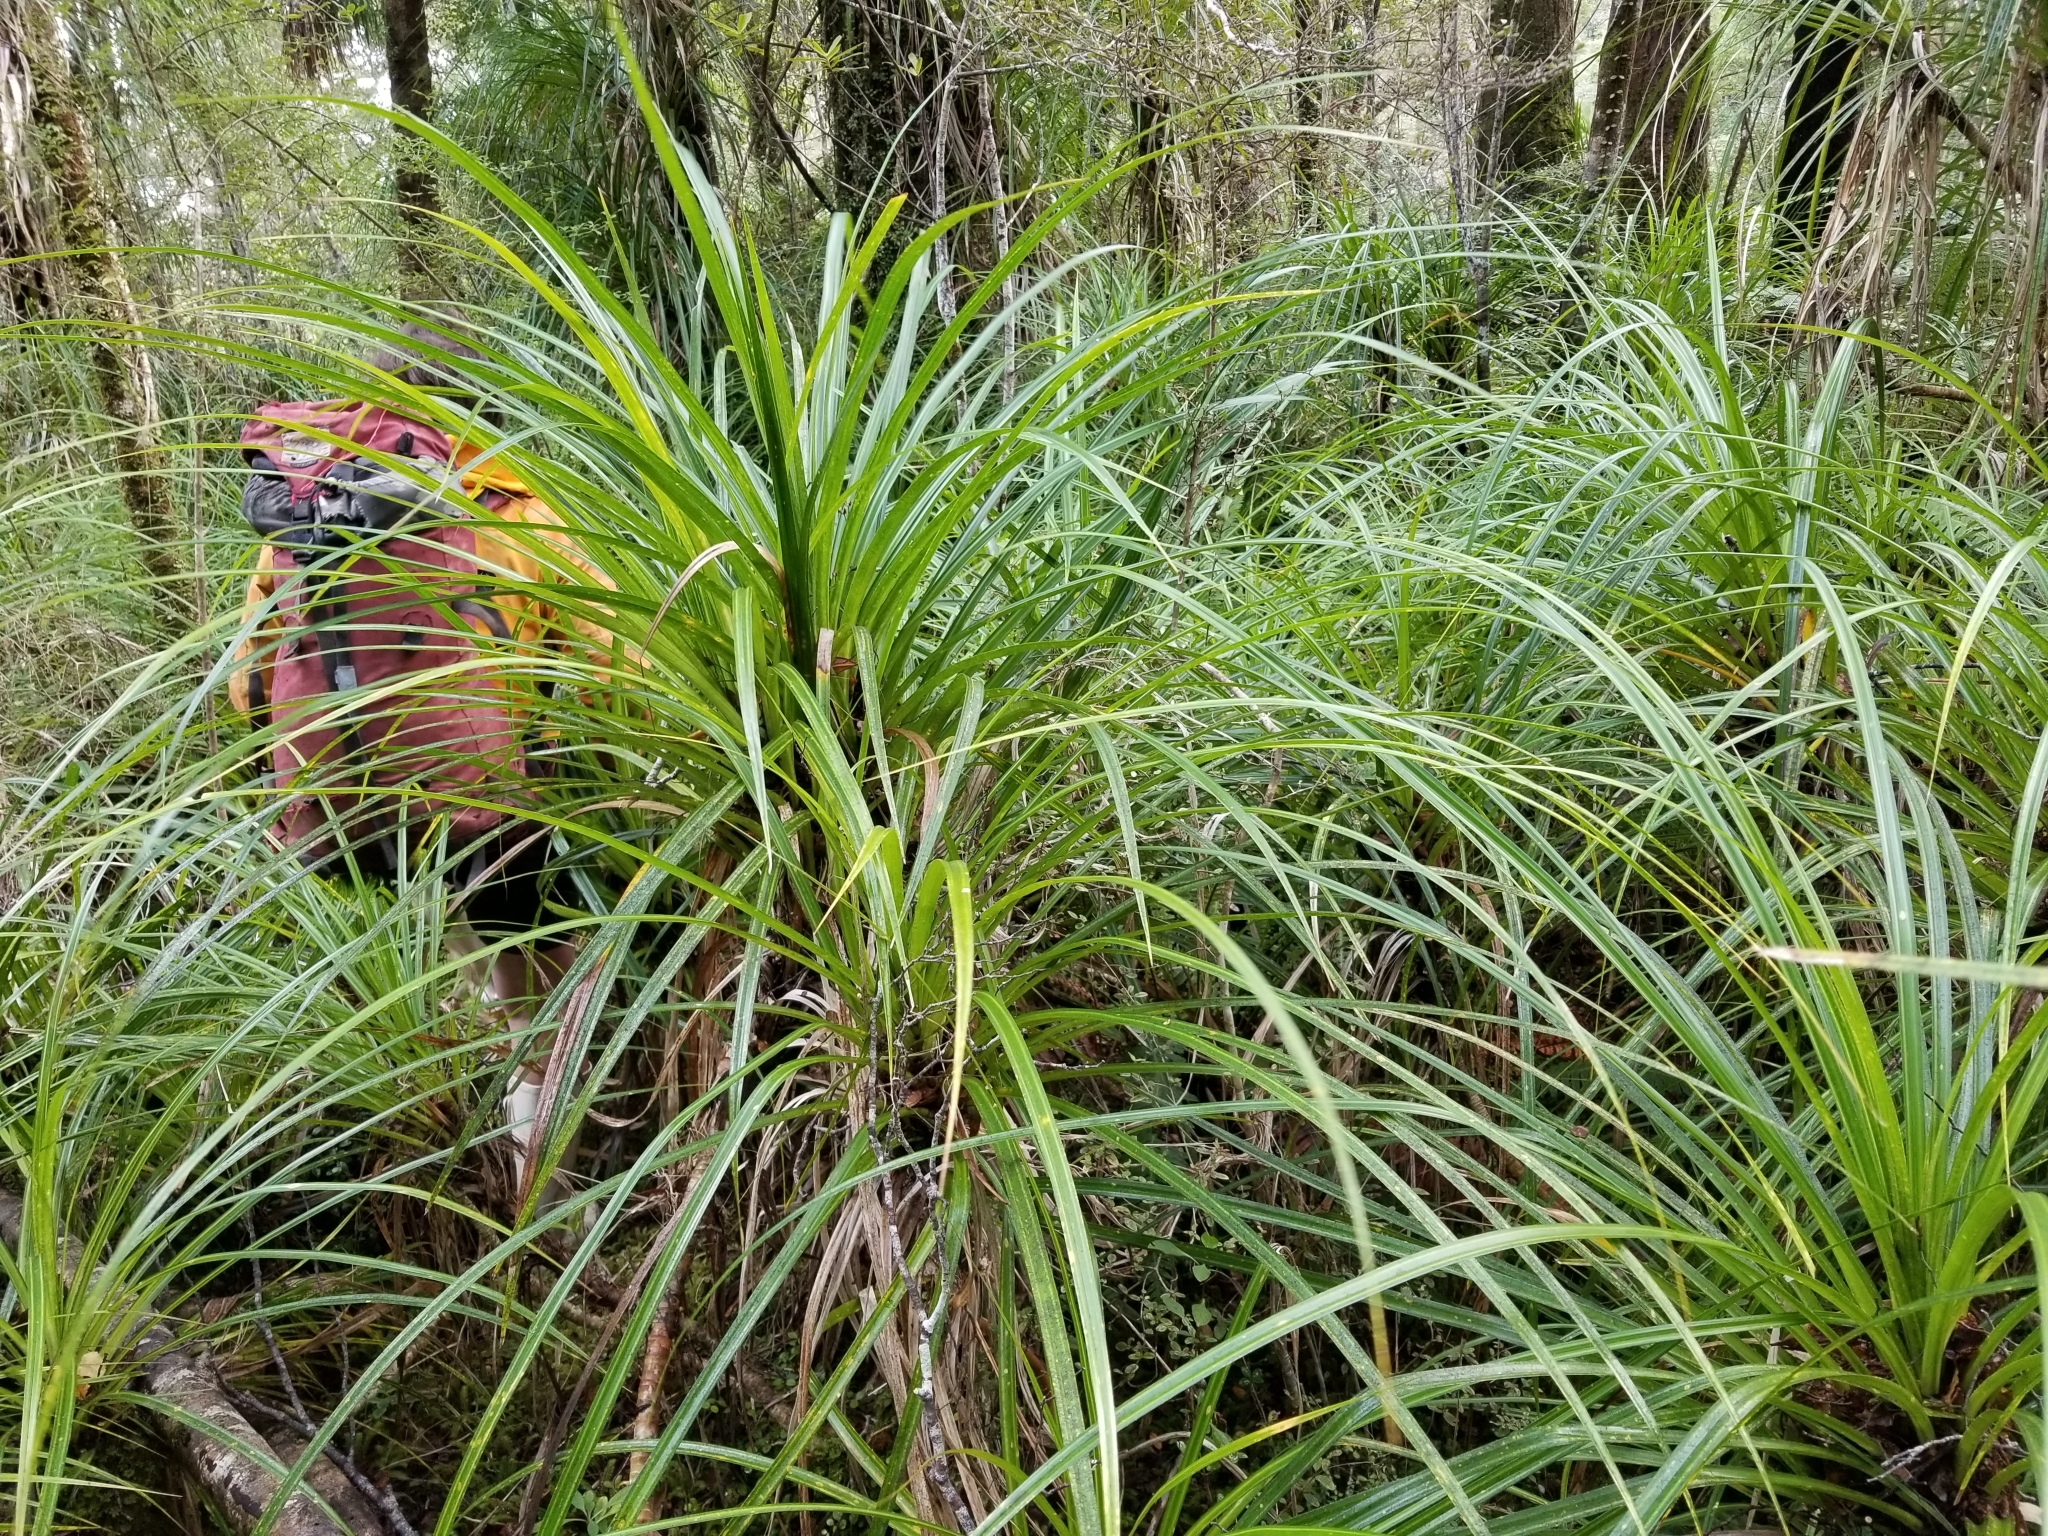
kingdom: Plantae
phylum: Tracheophyta
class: Liliopsida
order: Pandanales
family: Pandanaceae
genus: Freycinetia
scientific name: Freycinetia banksii
